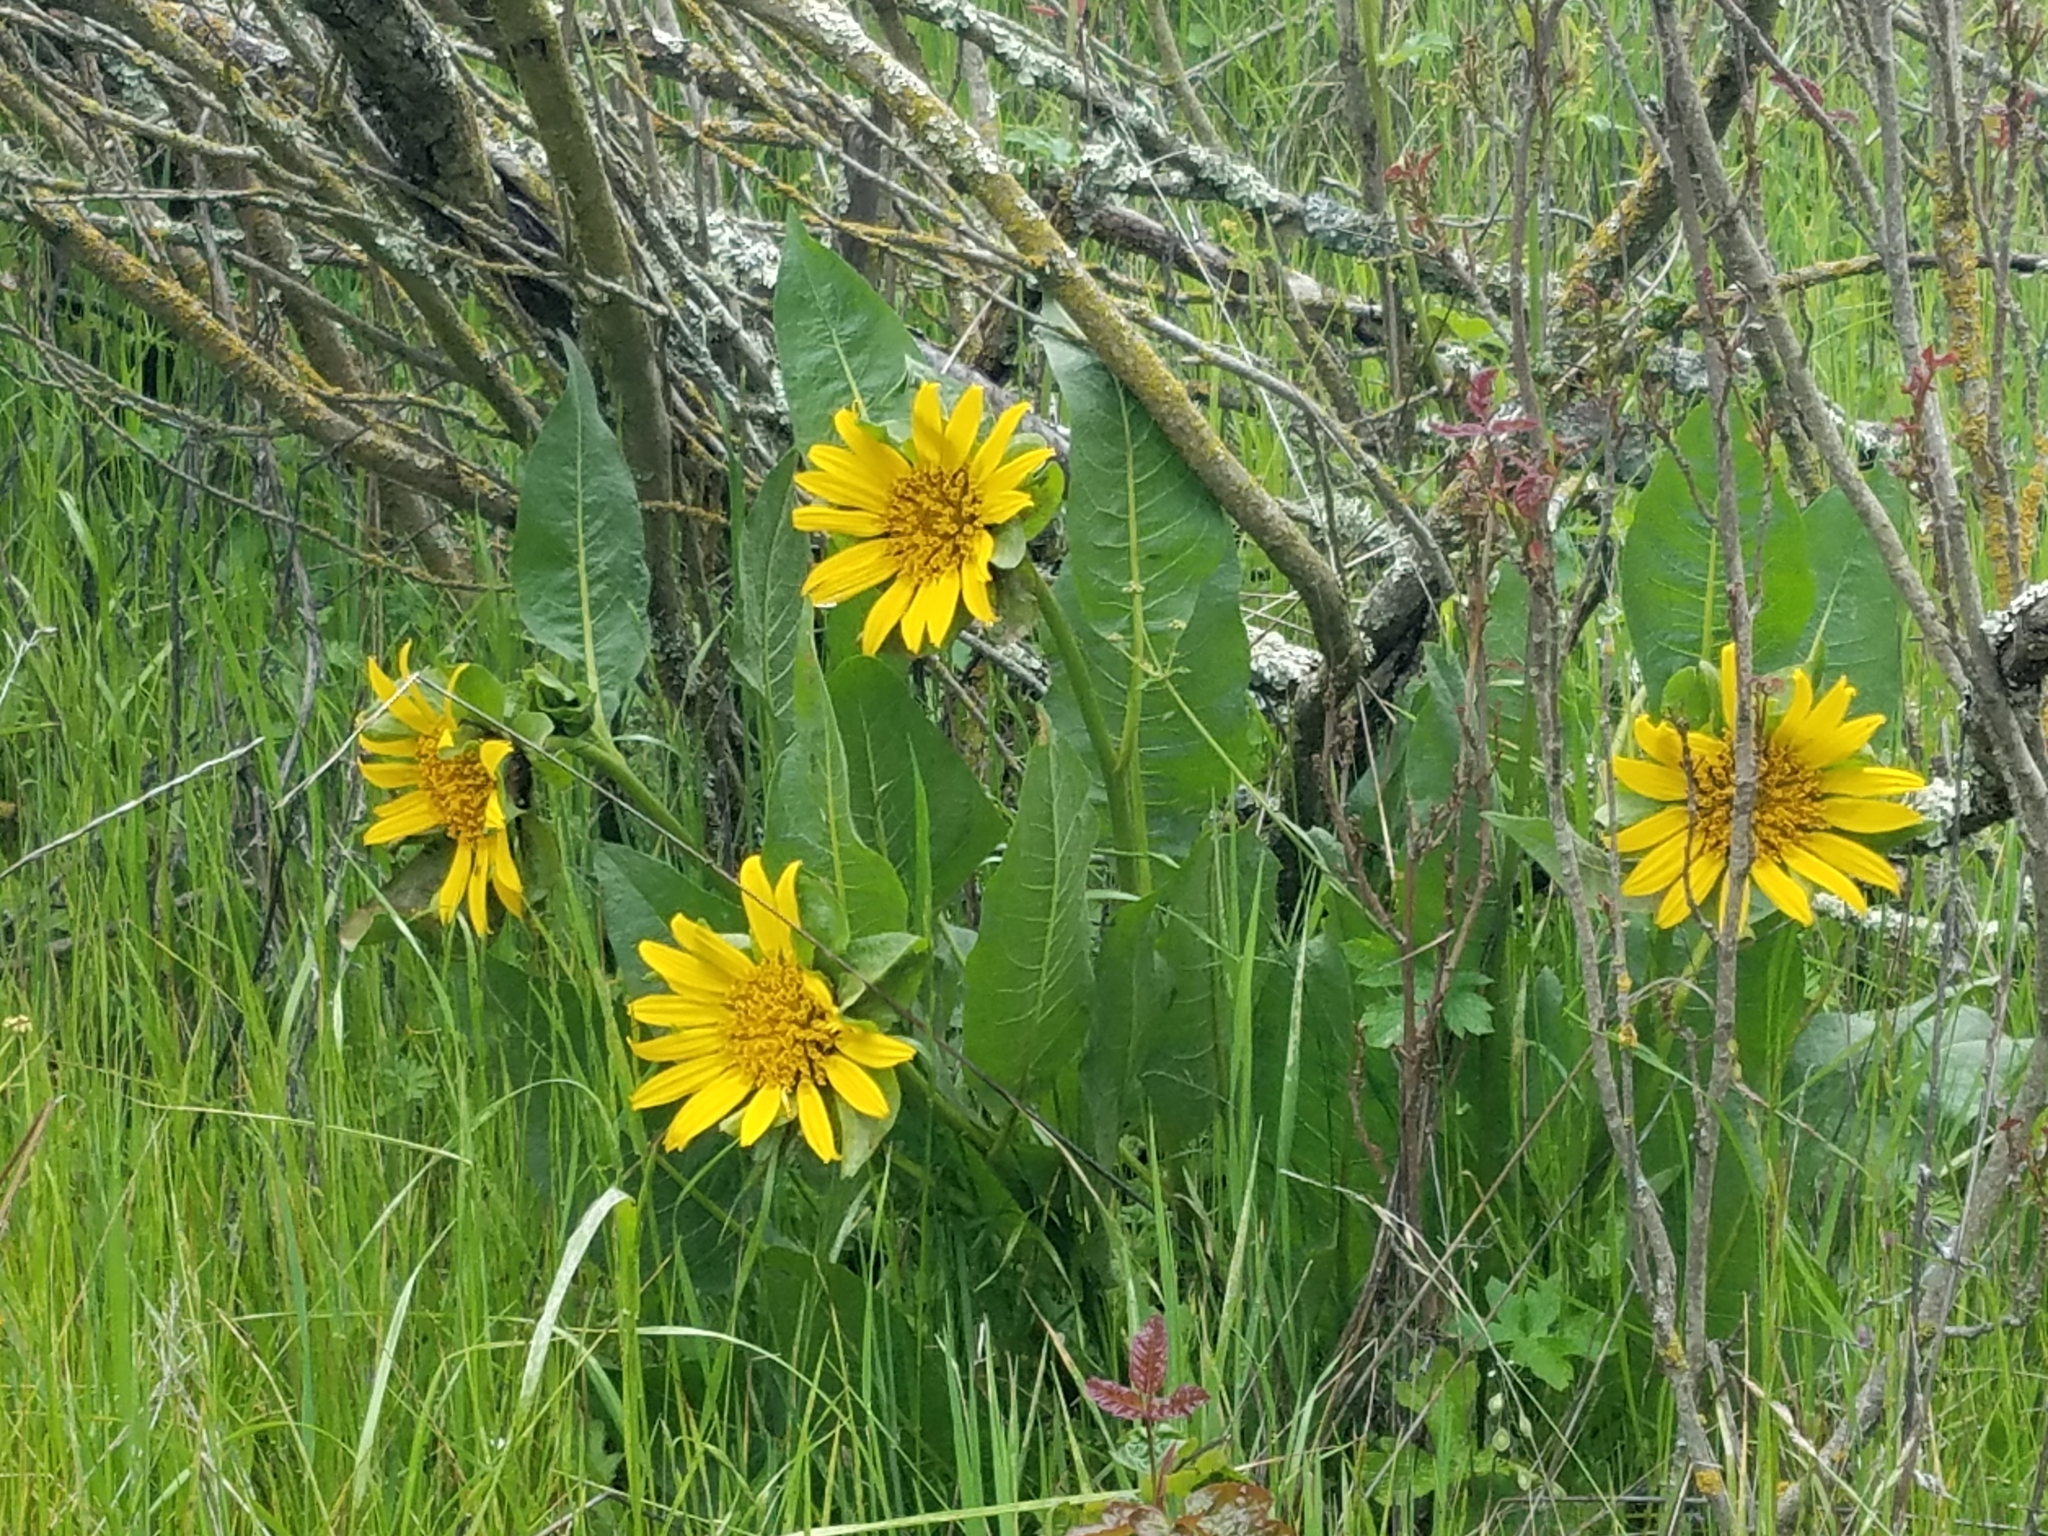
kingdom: Plantae
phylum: Tracheophyta
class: Magnoliopsida
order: Asterales
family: Asteraceae
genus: Wyethia
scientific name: Wyethia glabra
